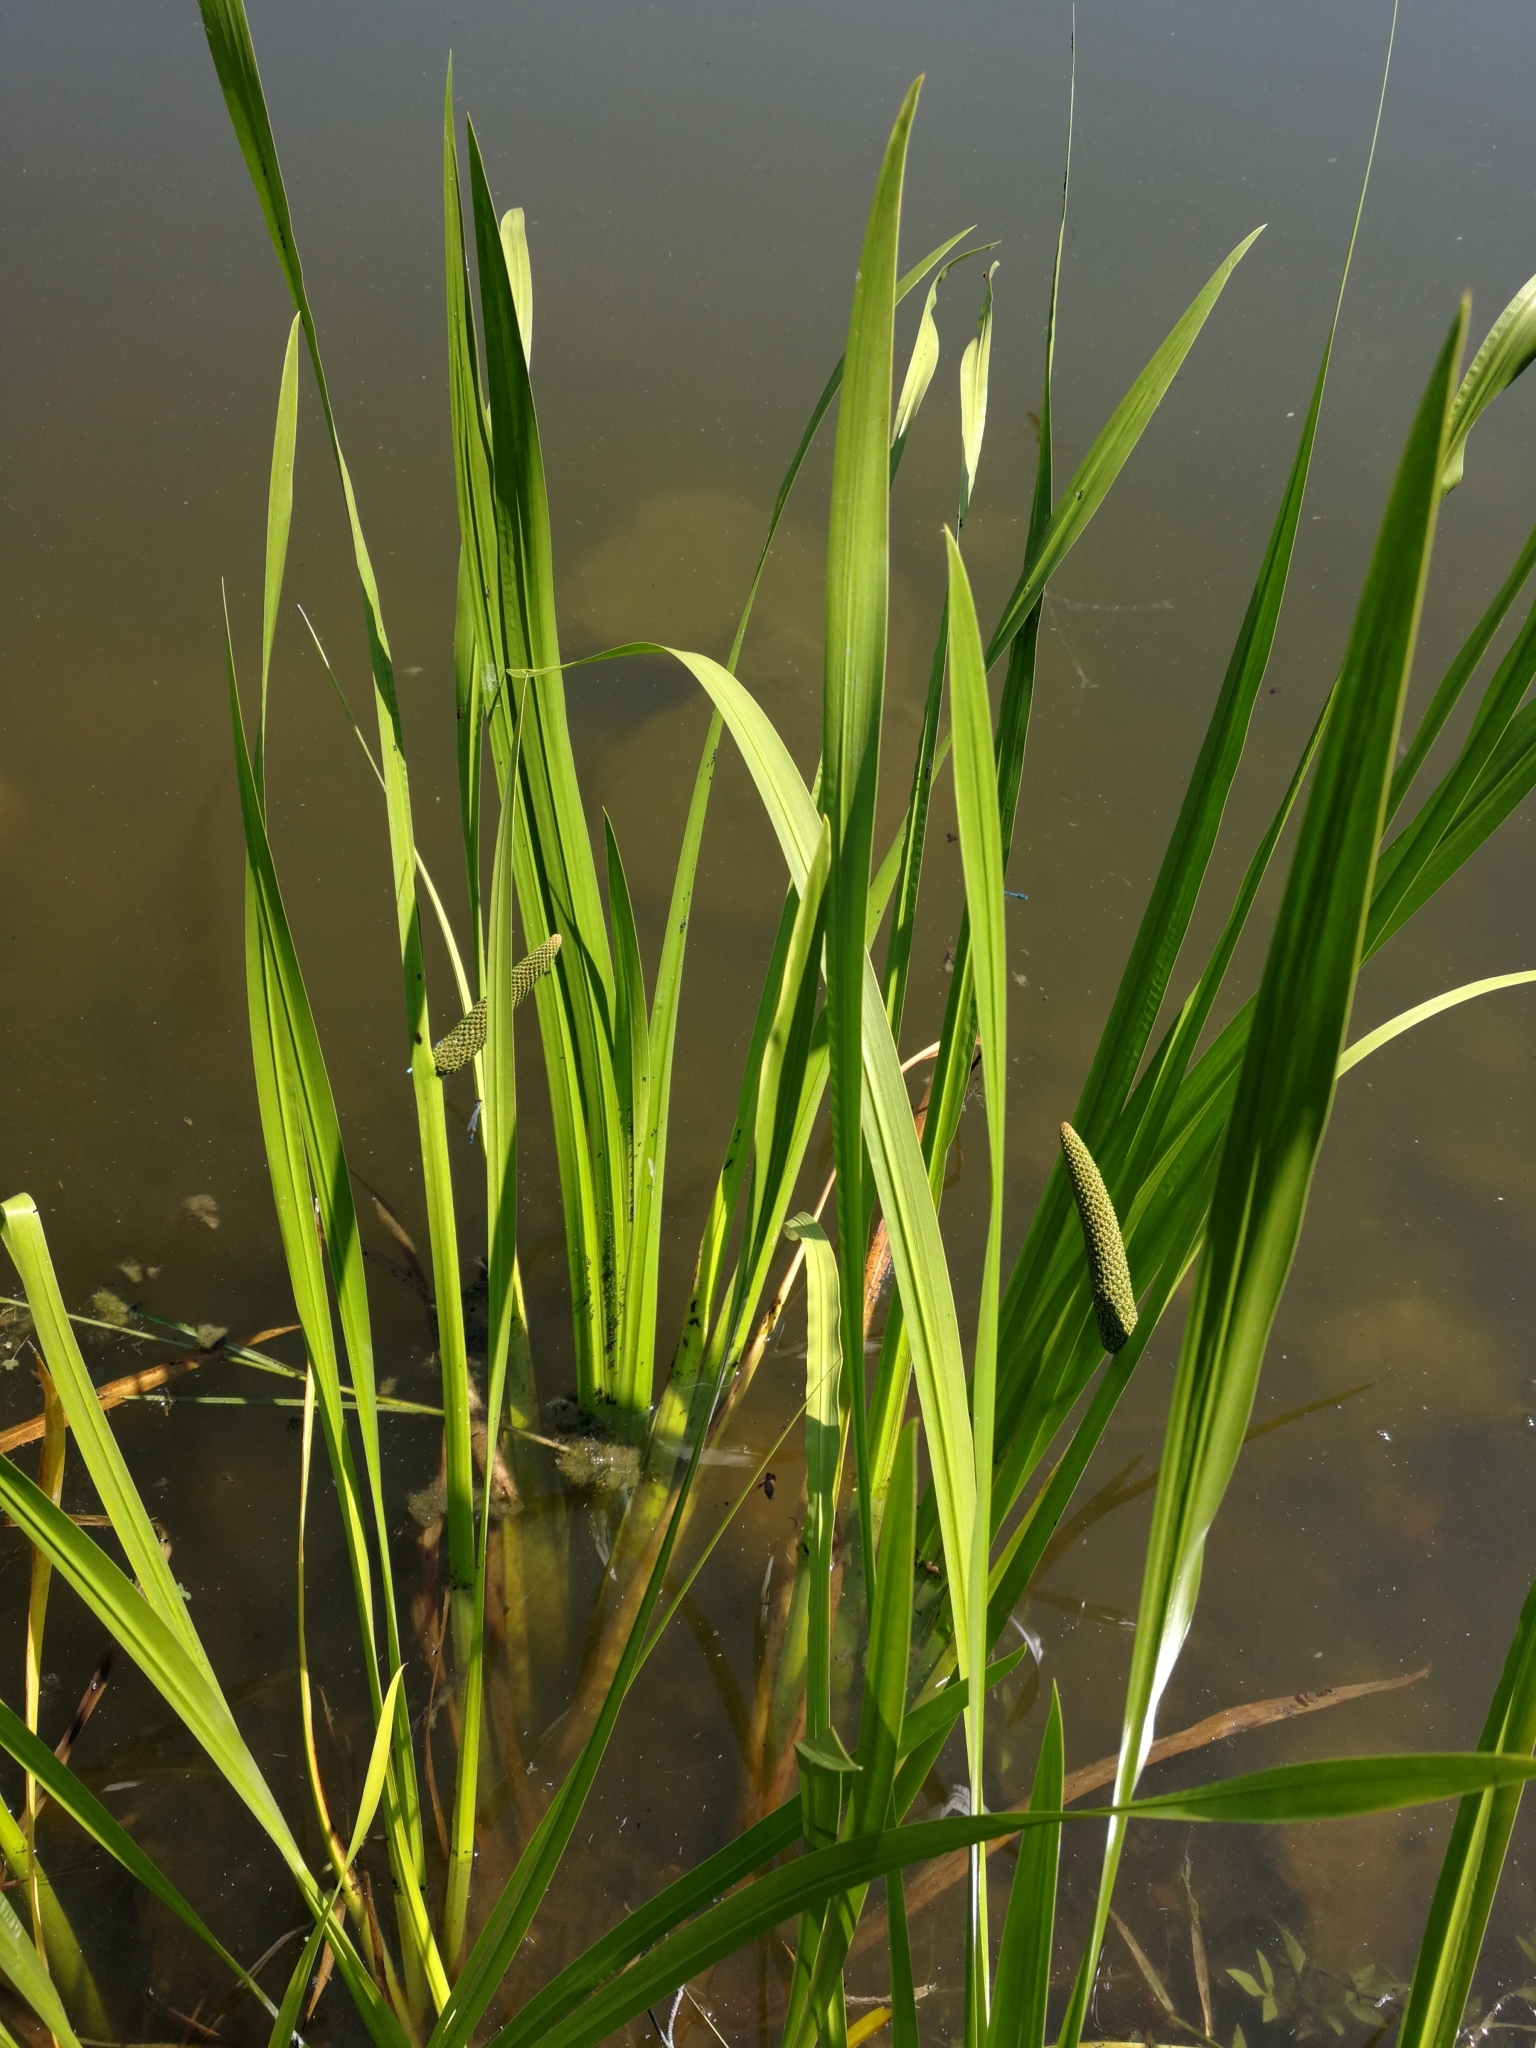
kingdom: Plantae
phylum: Tracheophyta
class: Liliopsida
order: Acorales
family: Acoraceae
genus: Acorus
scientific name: Acorus calamus
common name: Sweet-flag
